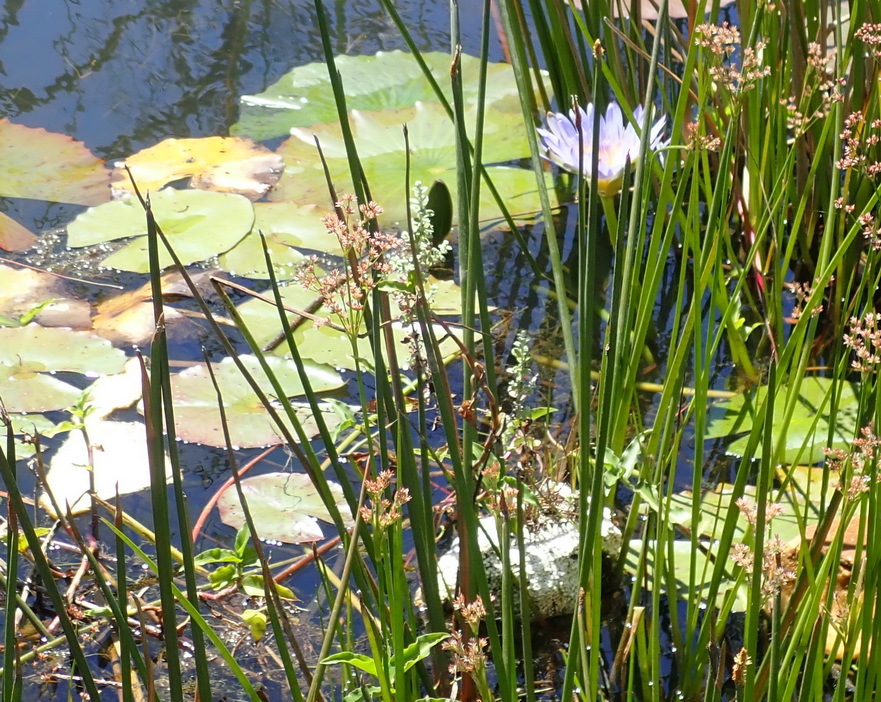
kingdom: Plantae
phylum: Tracheophyta
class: Magnoliopsida
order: Nymphaeales
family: Nymphaeaceae
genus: Nymphaea
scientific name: Nymphaea nouchali
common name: Blue lotus
